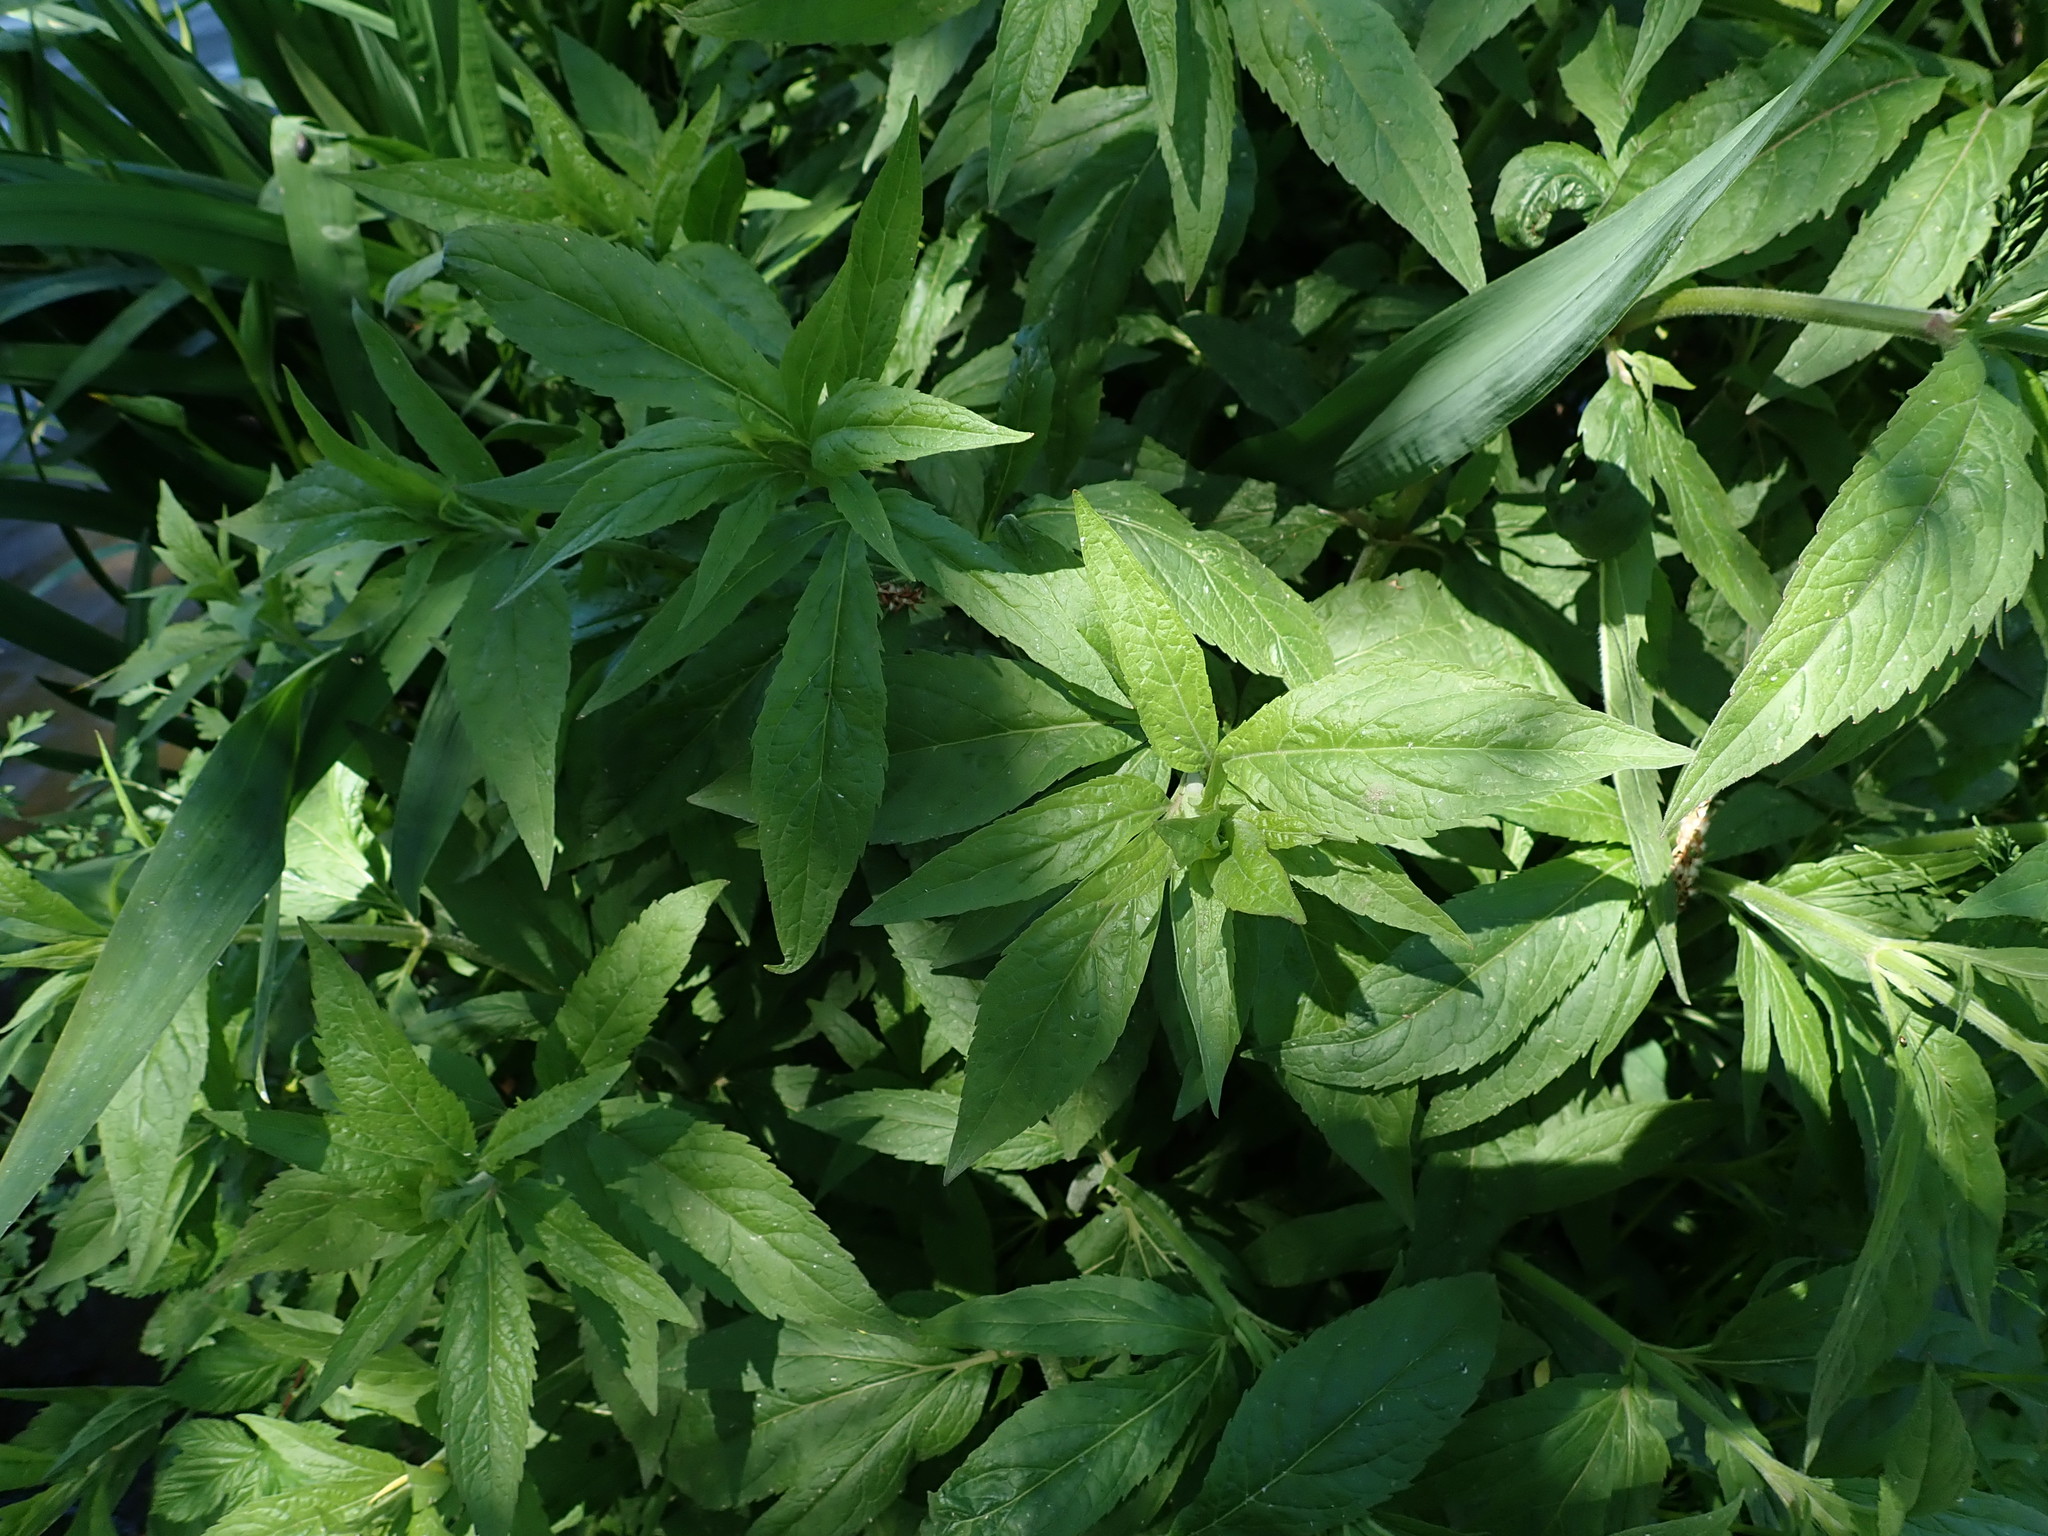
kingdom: Plantae
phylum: Tracheophyta
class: Magnoliopsida
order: Asterales
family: Asteraceae
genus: Eupatorium
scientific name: Eupatorium cannabinum
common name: Hemp-agrimony
